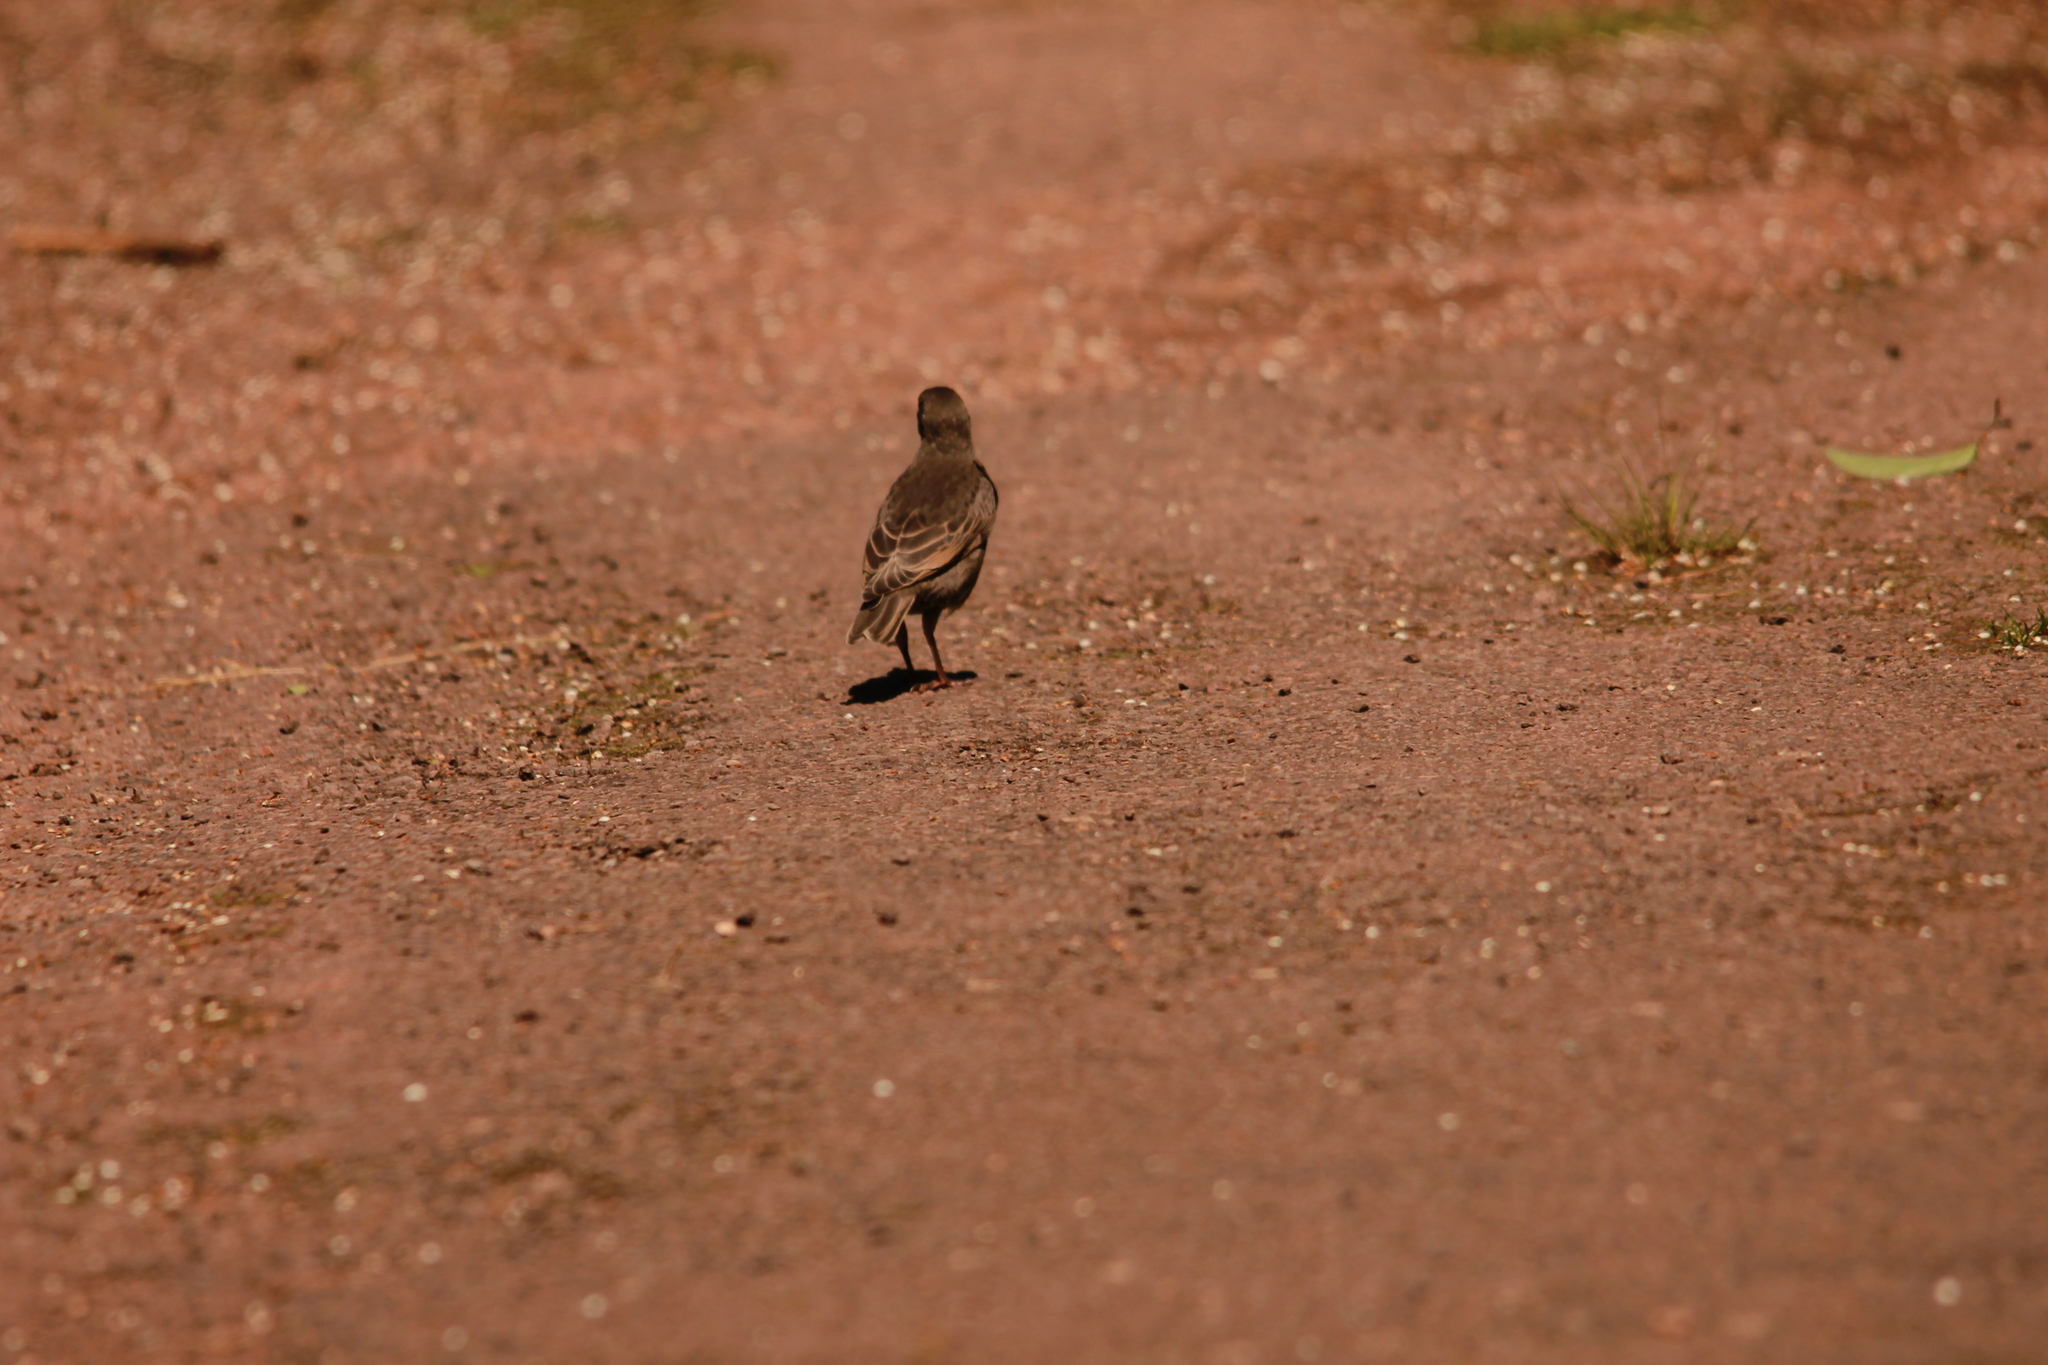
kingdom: Animalia
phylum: Chordata
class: Aves
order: Passeriformes
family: Sturnidae
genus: Sturnus
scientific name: Sturnus vulgaris
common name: Common starling
